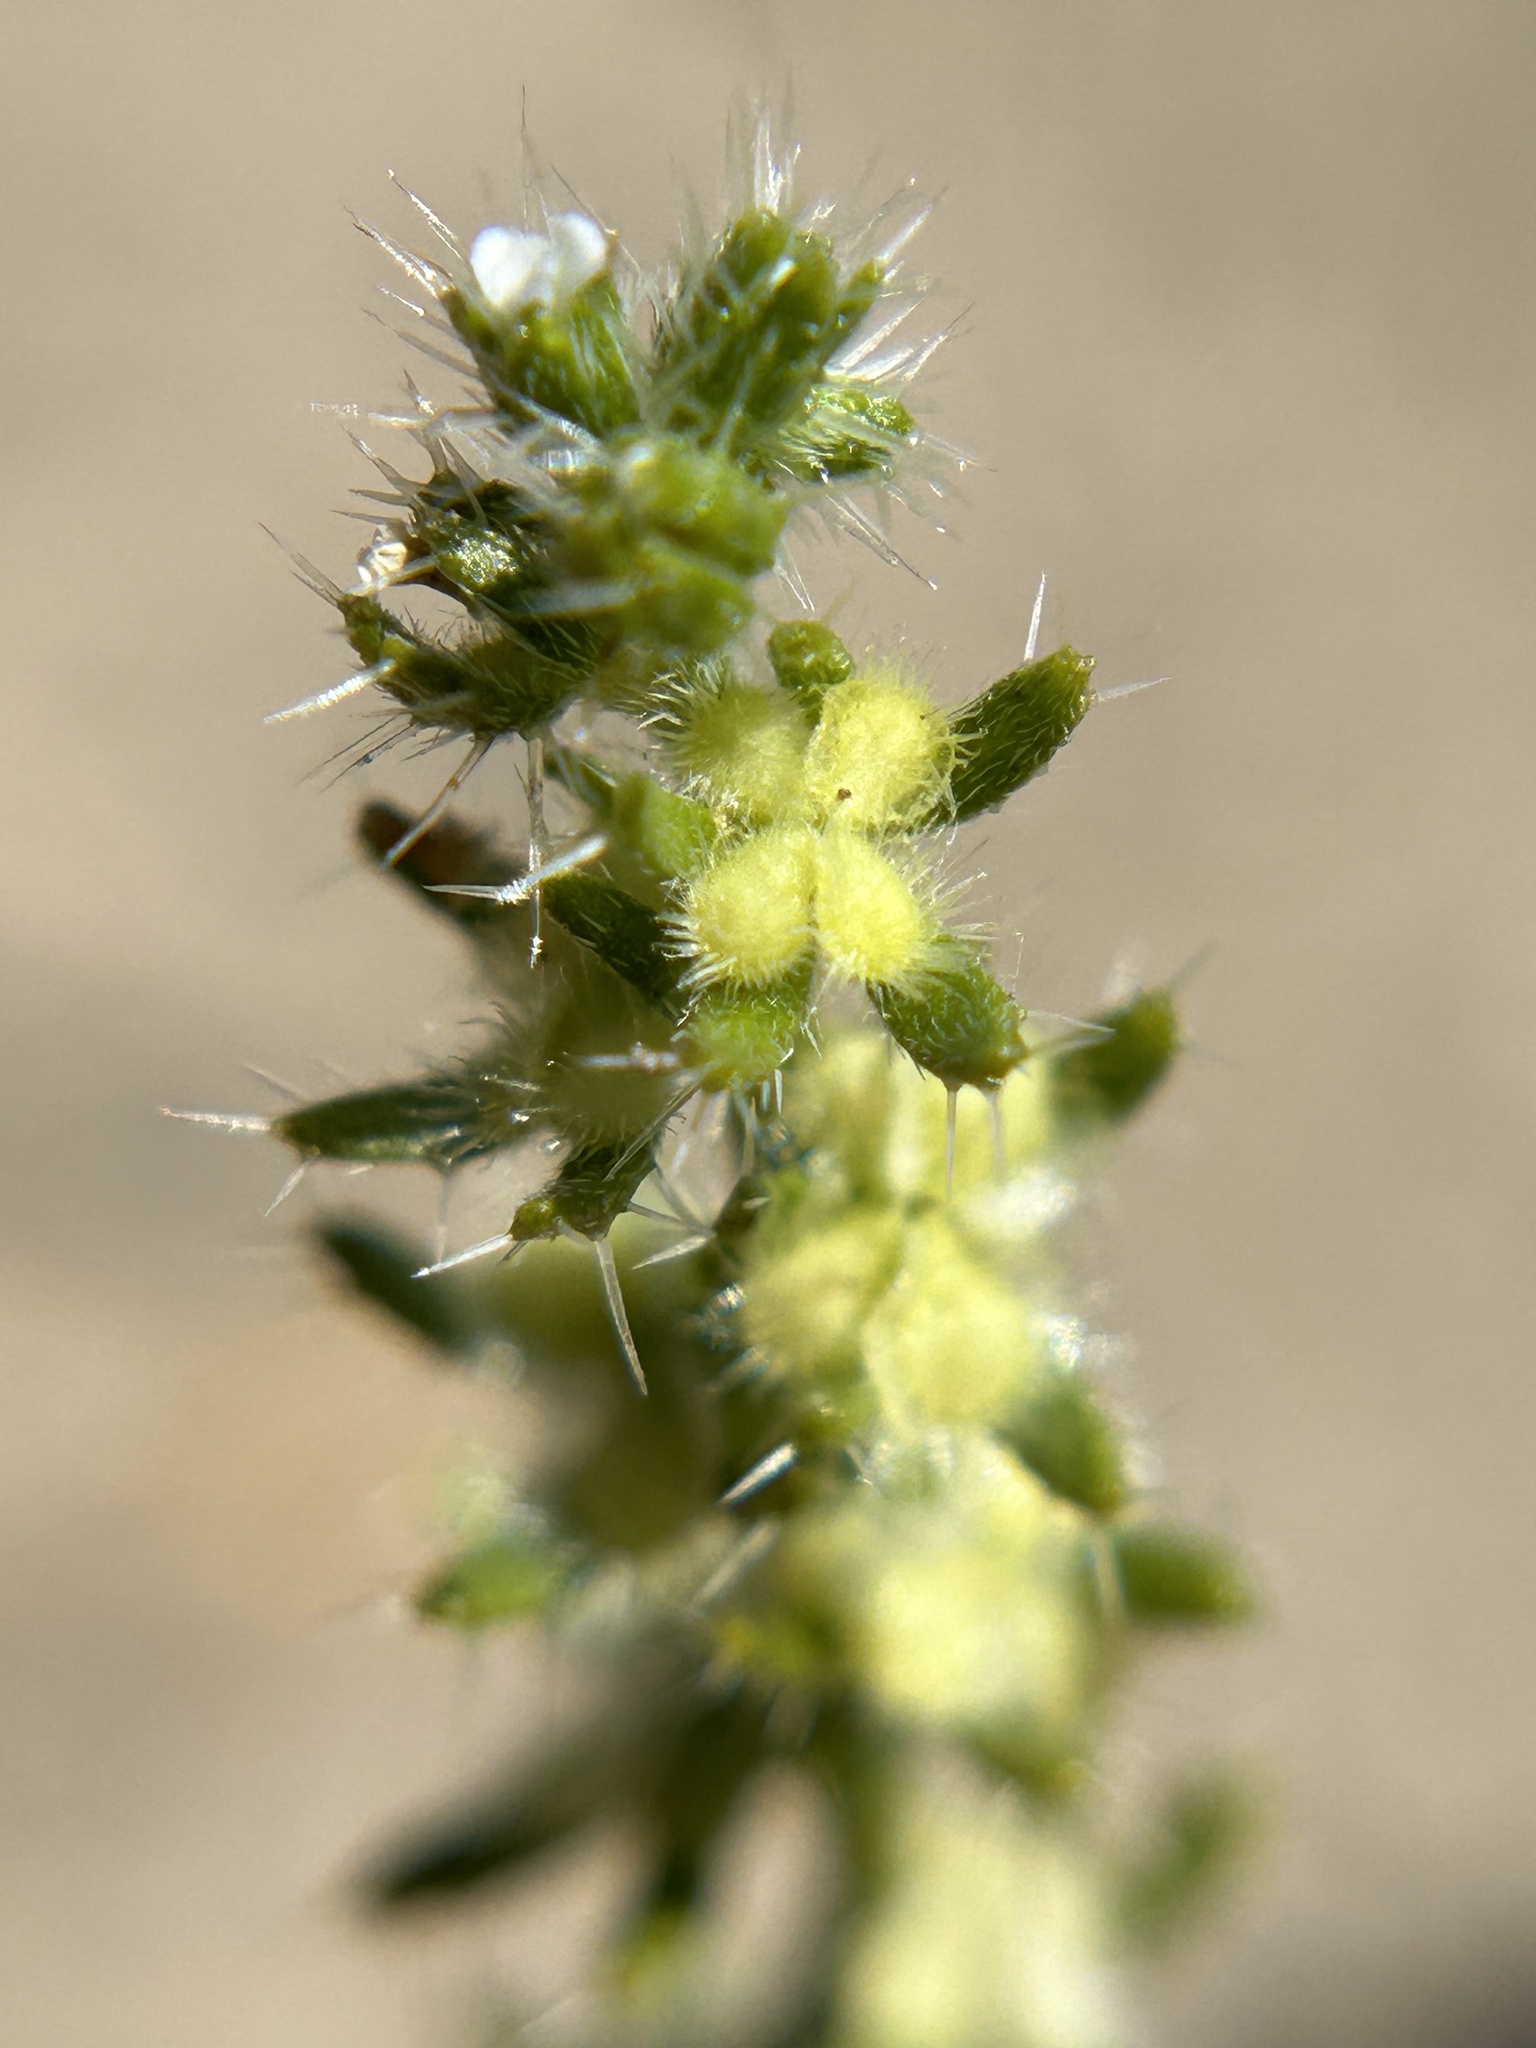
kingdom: Plantae
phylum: Tracheophyta
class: Magnoliopsida
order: Boraginales
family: Boraginaceae
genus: Pectocarya
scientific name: Pectocarya setosa
